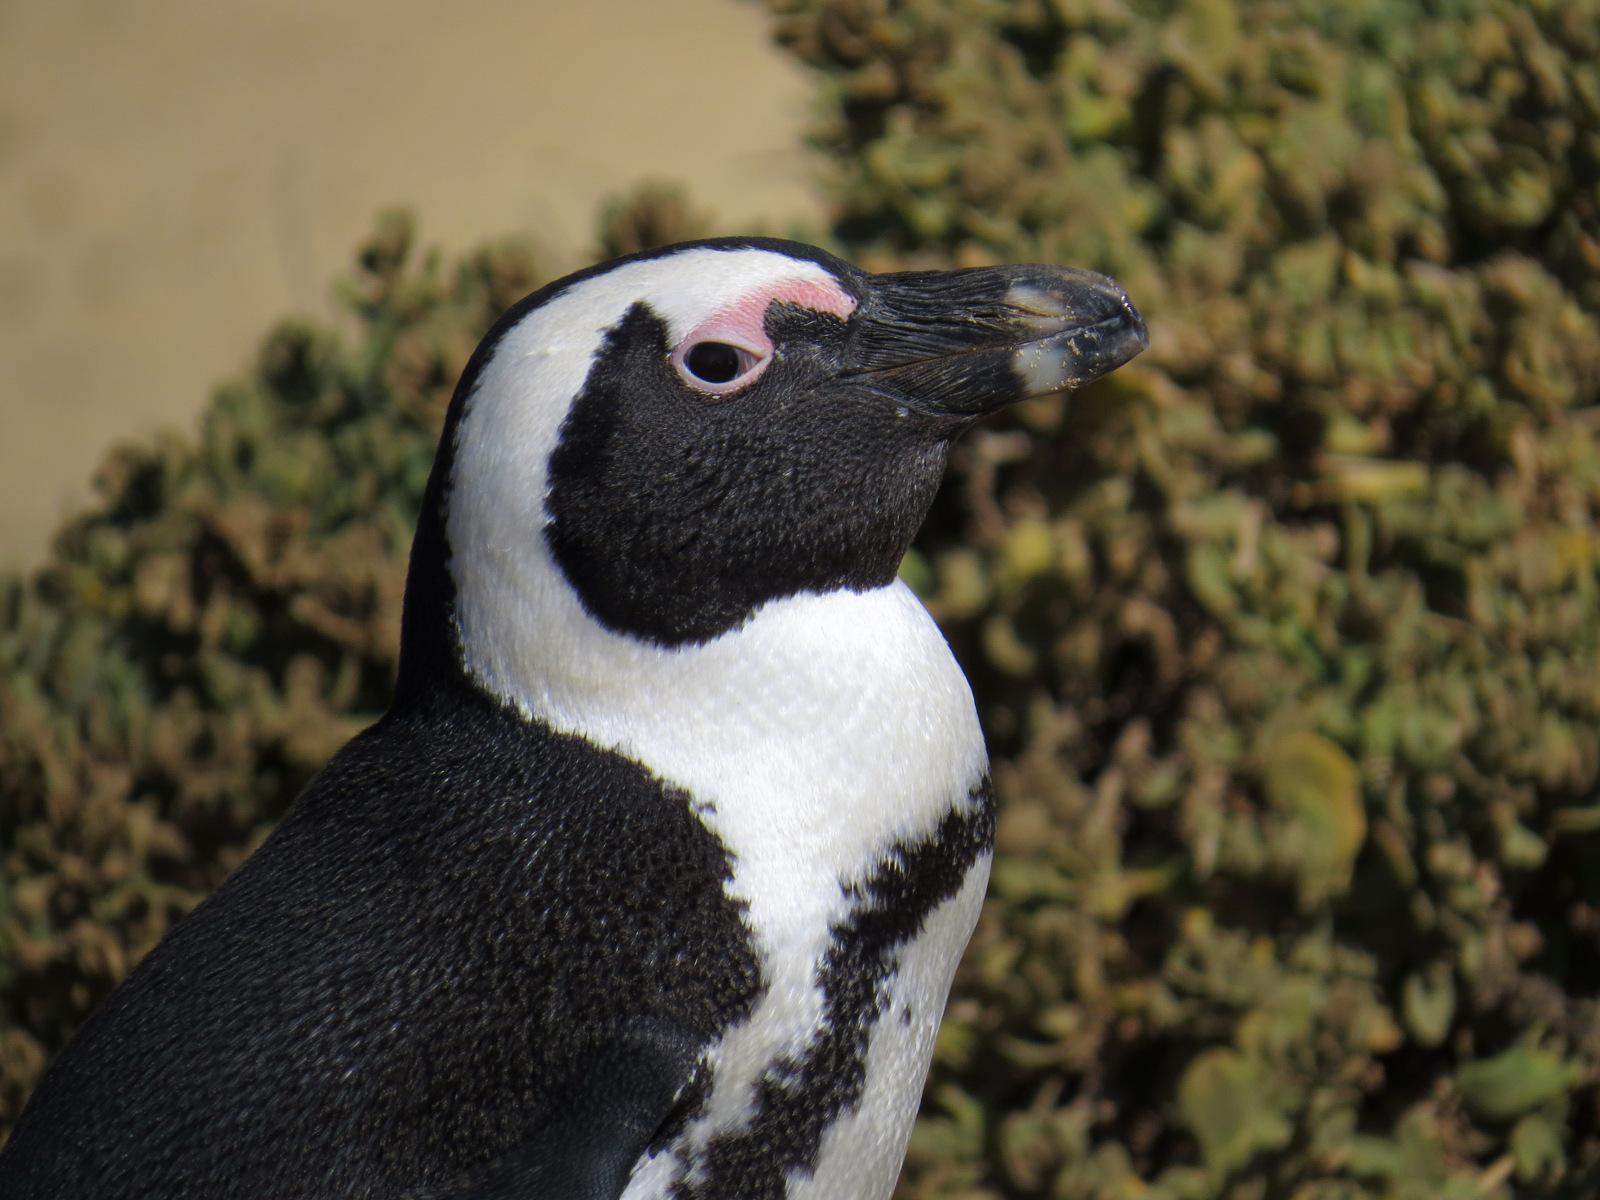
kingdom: Animalia
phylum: Chordata
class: Aves
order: Sphenisciformes
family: Spheniscidae
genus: Spheniscus
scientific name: Spheniscus demersus
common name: African penguin
